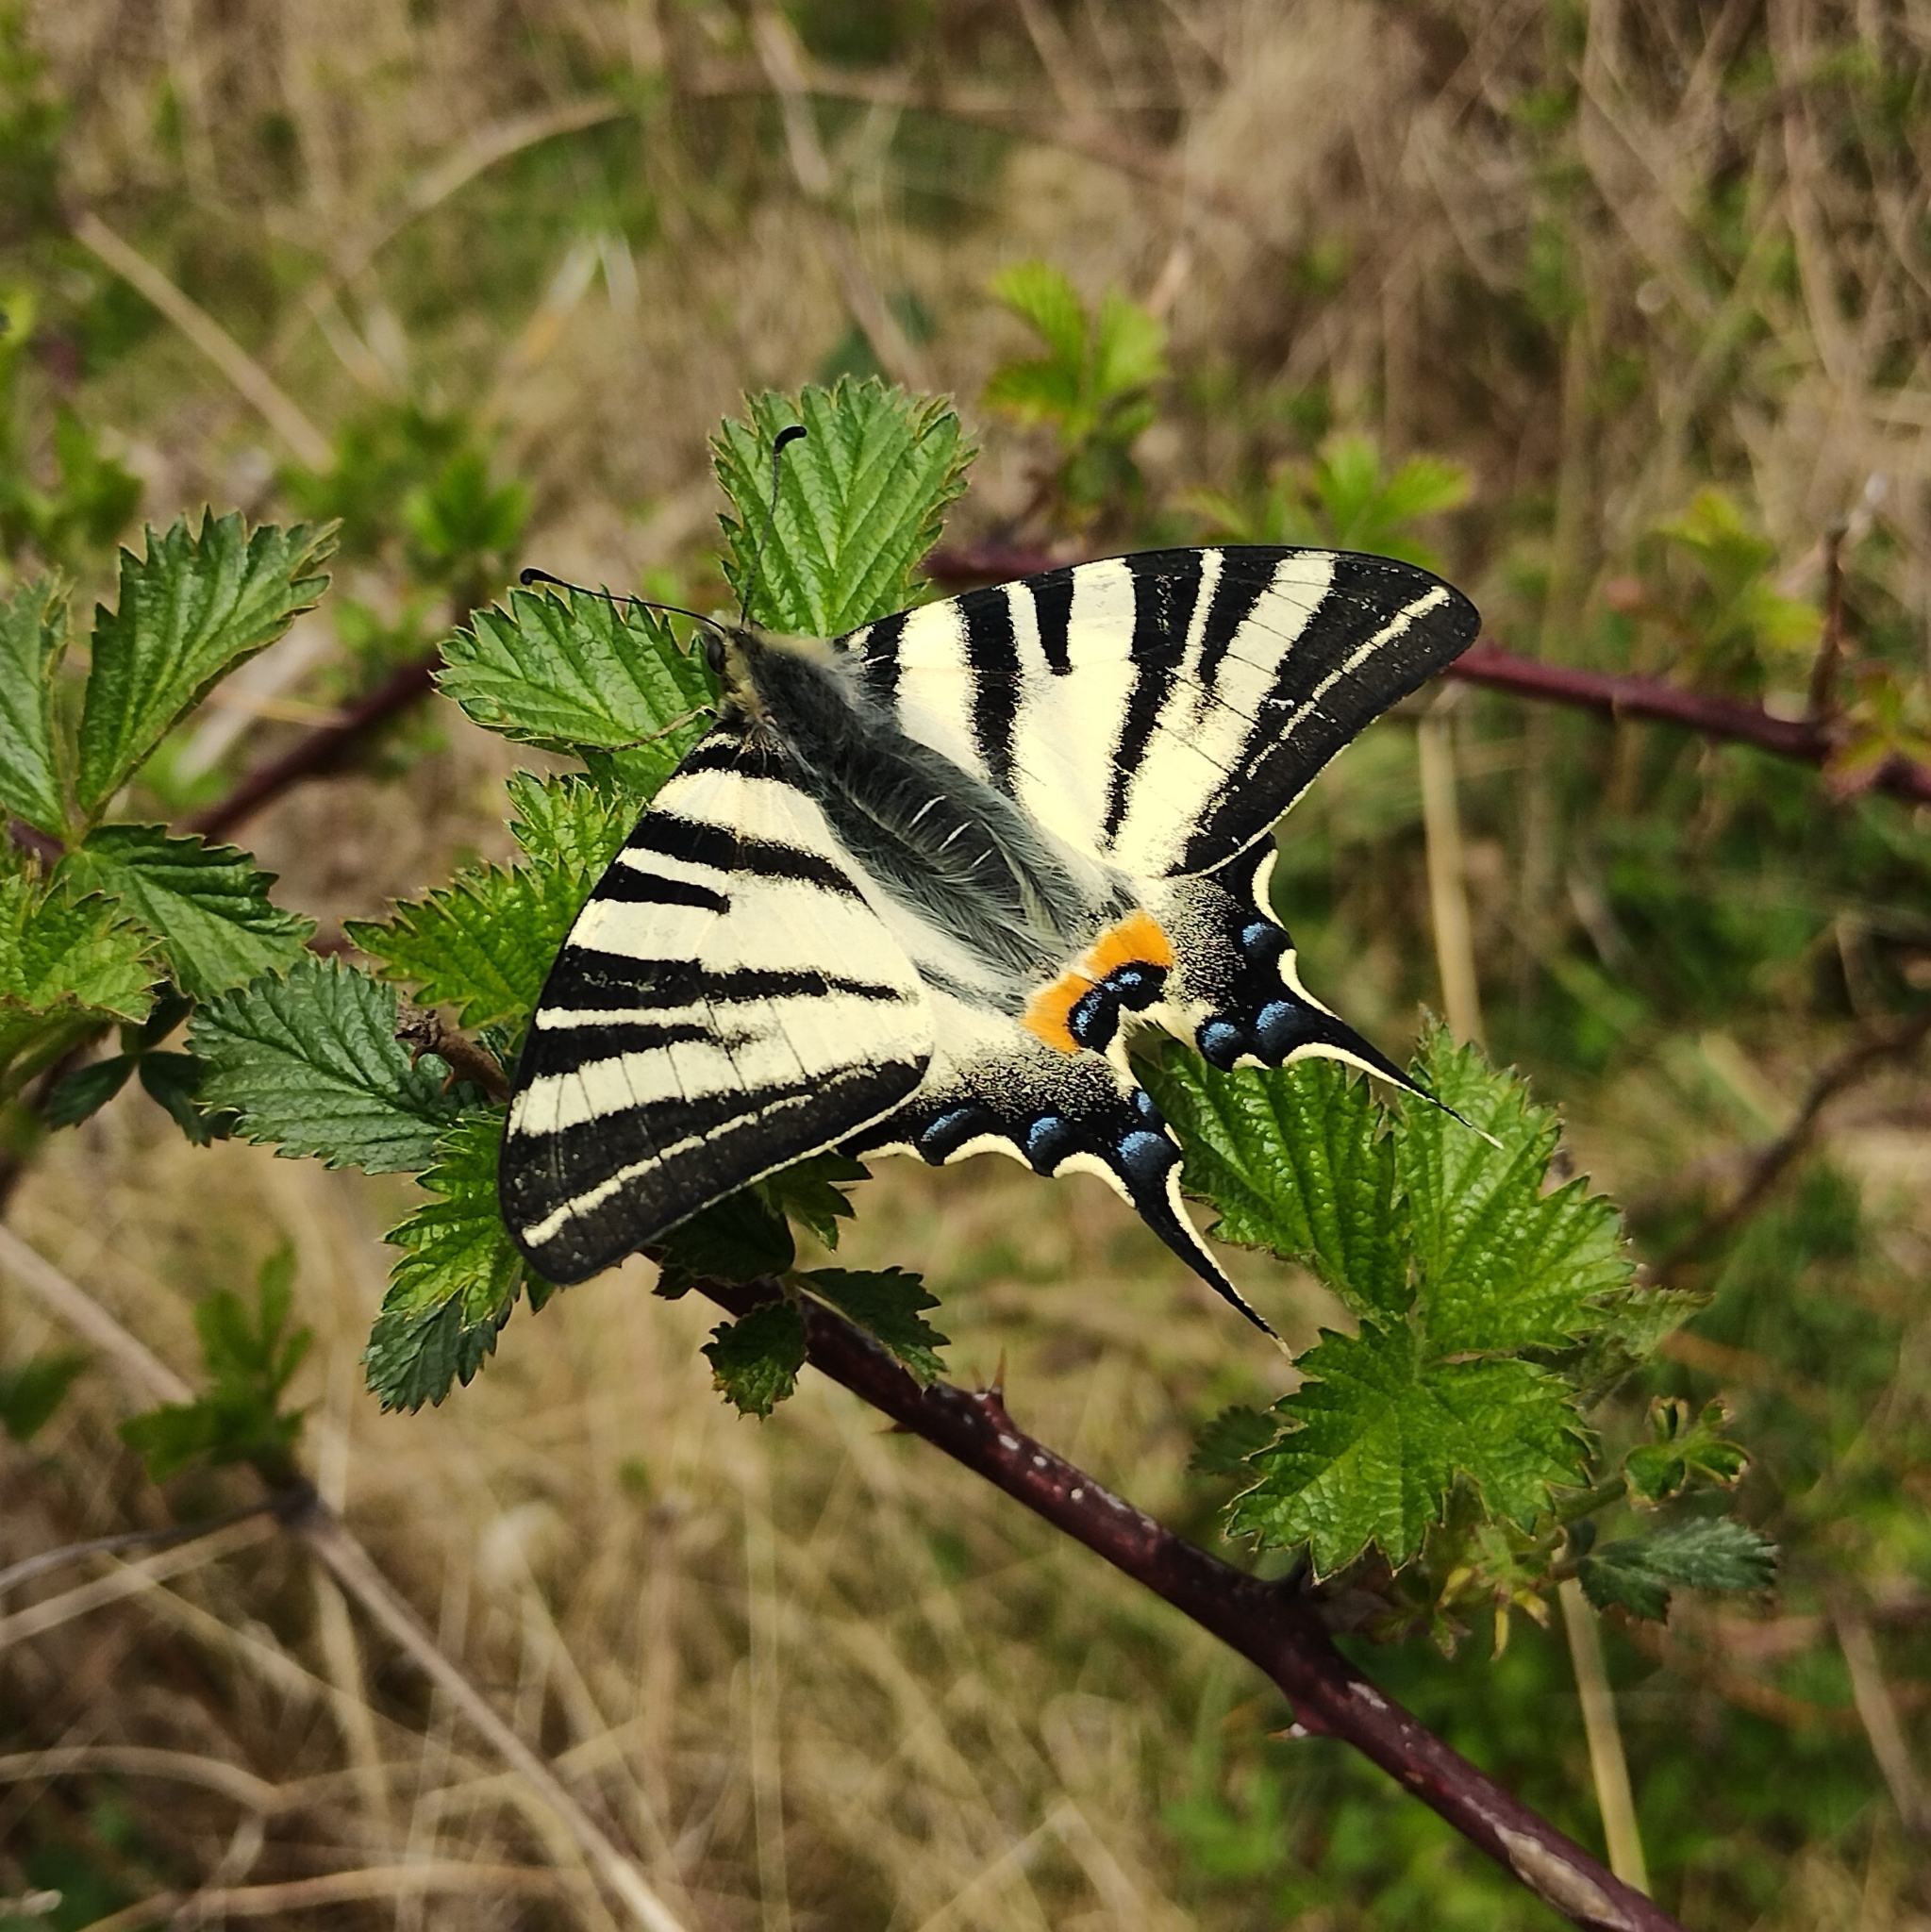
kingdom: Animalia
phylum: Arthropoda
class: Insecta
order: Lepidoptera
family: Papilionidae
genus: Iphiclides
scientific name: Iphiclides podalirius
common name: Scarce swallowtail
